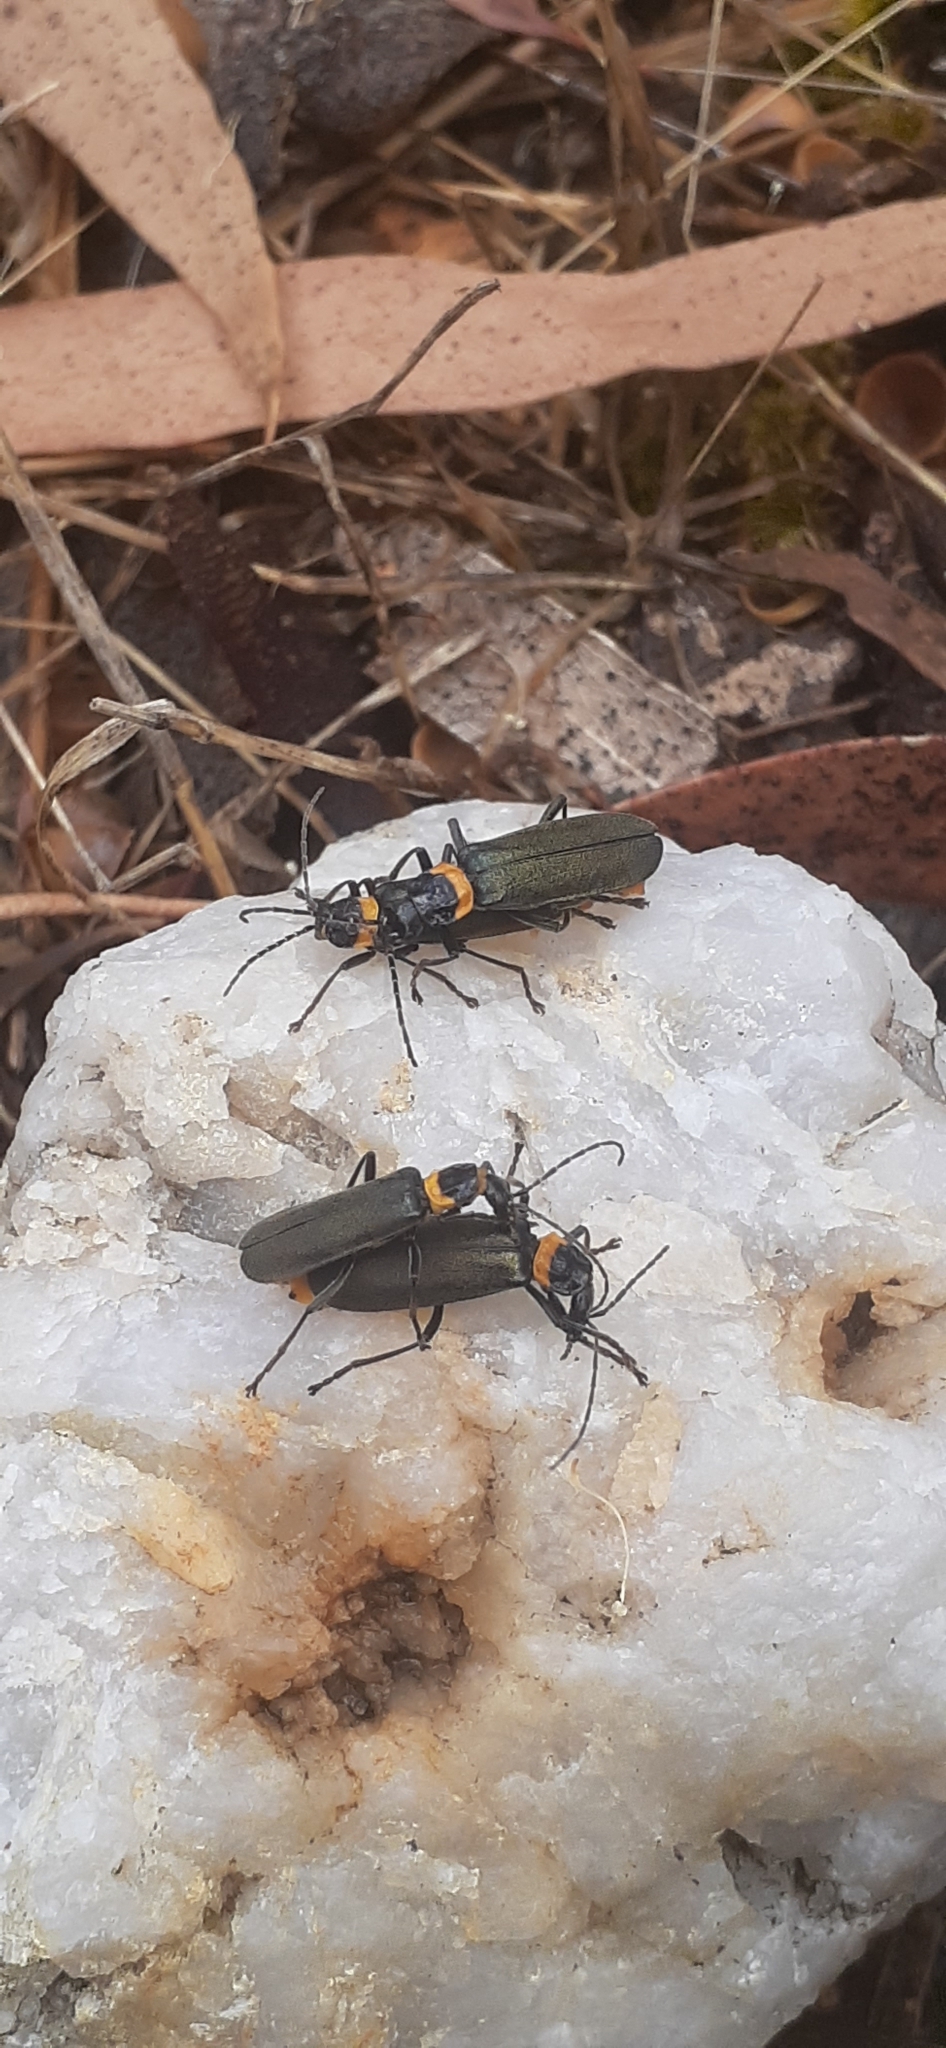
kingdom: Animalia
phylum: Arthropoda
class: Insecta
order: Coleoptera
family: Cantharidae
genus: Chauliognathus
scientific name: Chauliognathus
